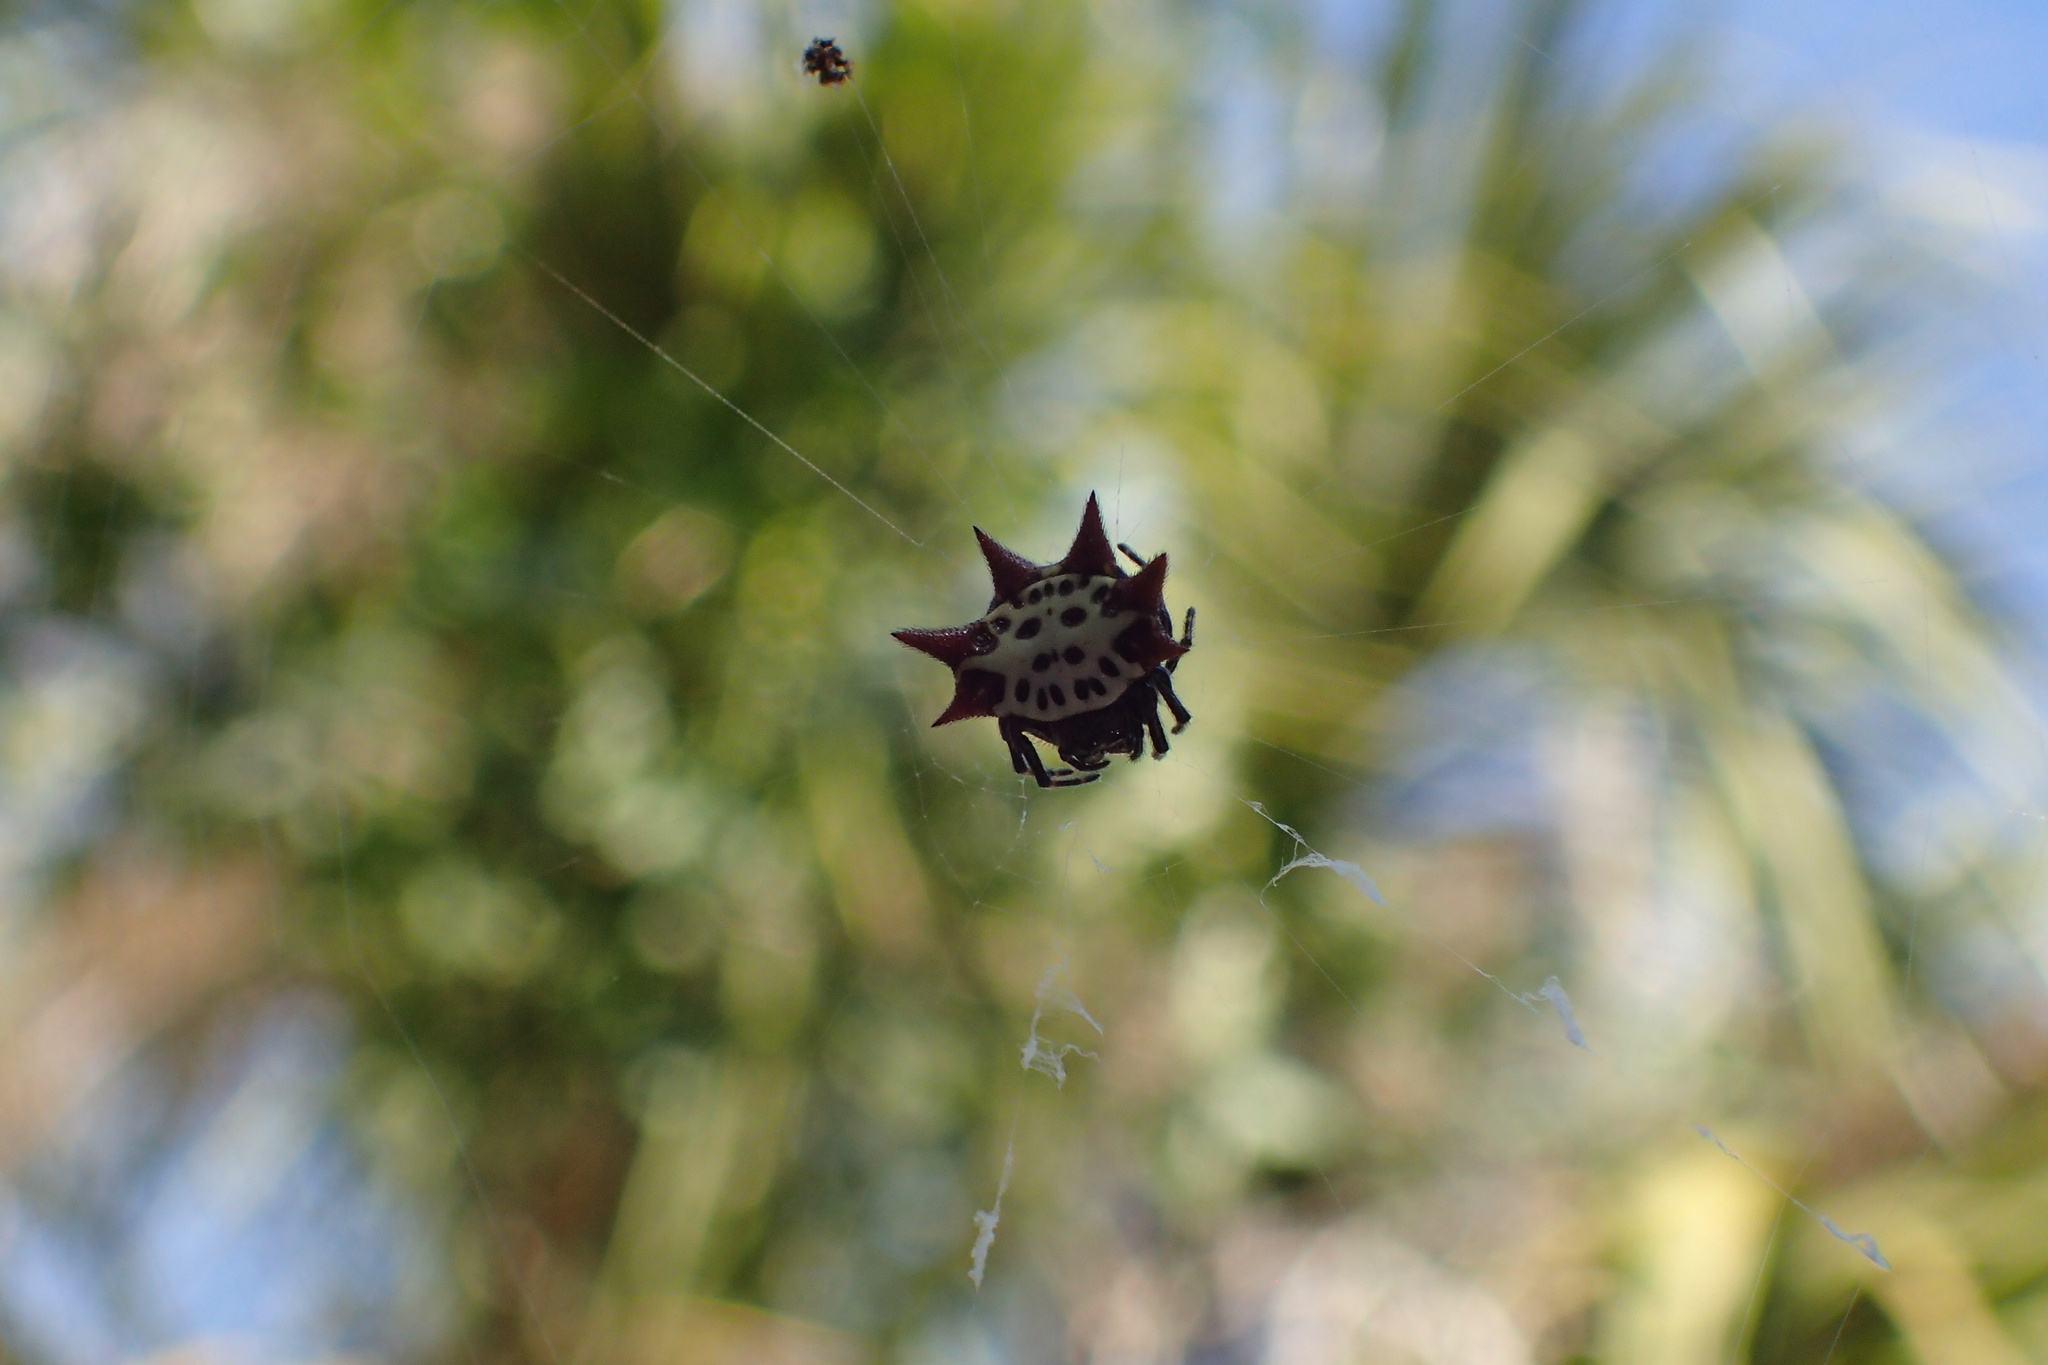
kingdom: Animalia
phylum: Arthropoda
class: Arachnida
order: Araneae
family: Araneidae
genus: Gasteracantha
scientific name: Gasteracantha cancriformis
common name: Orb weavers
